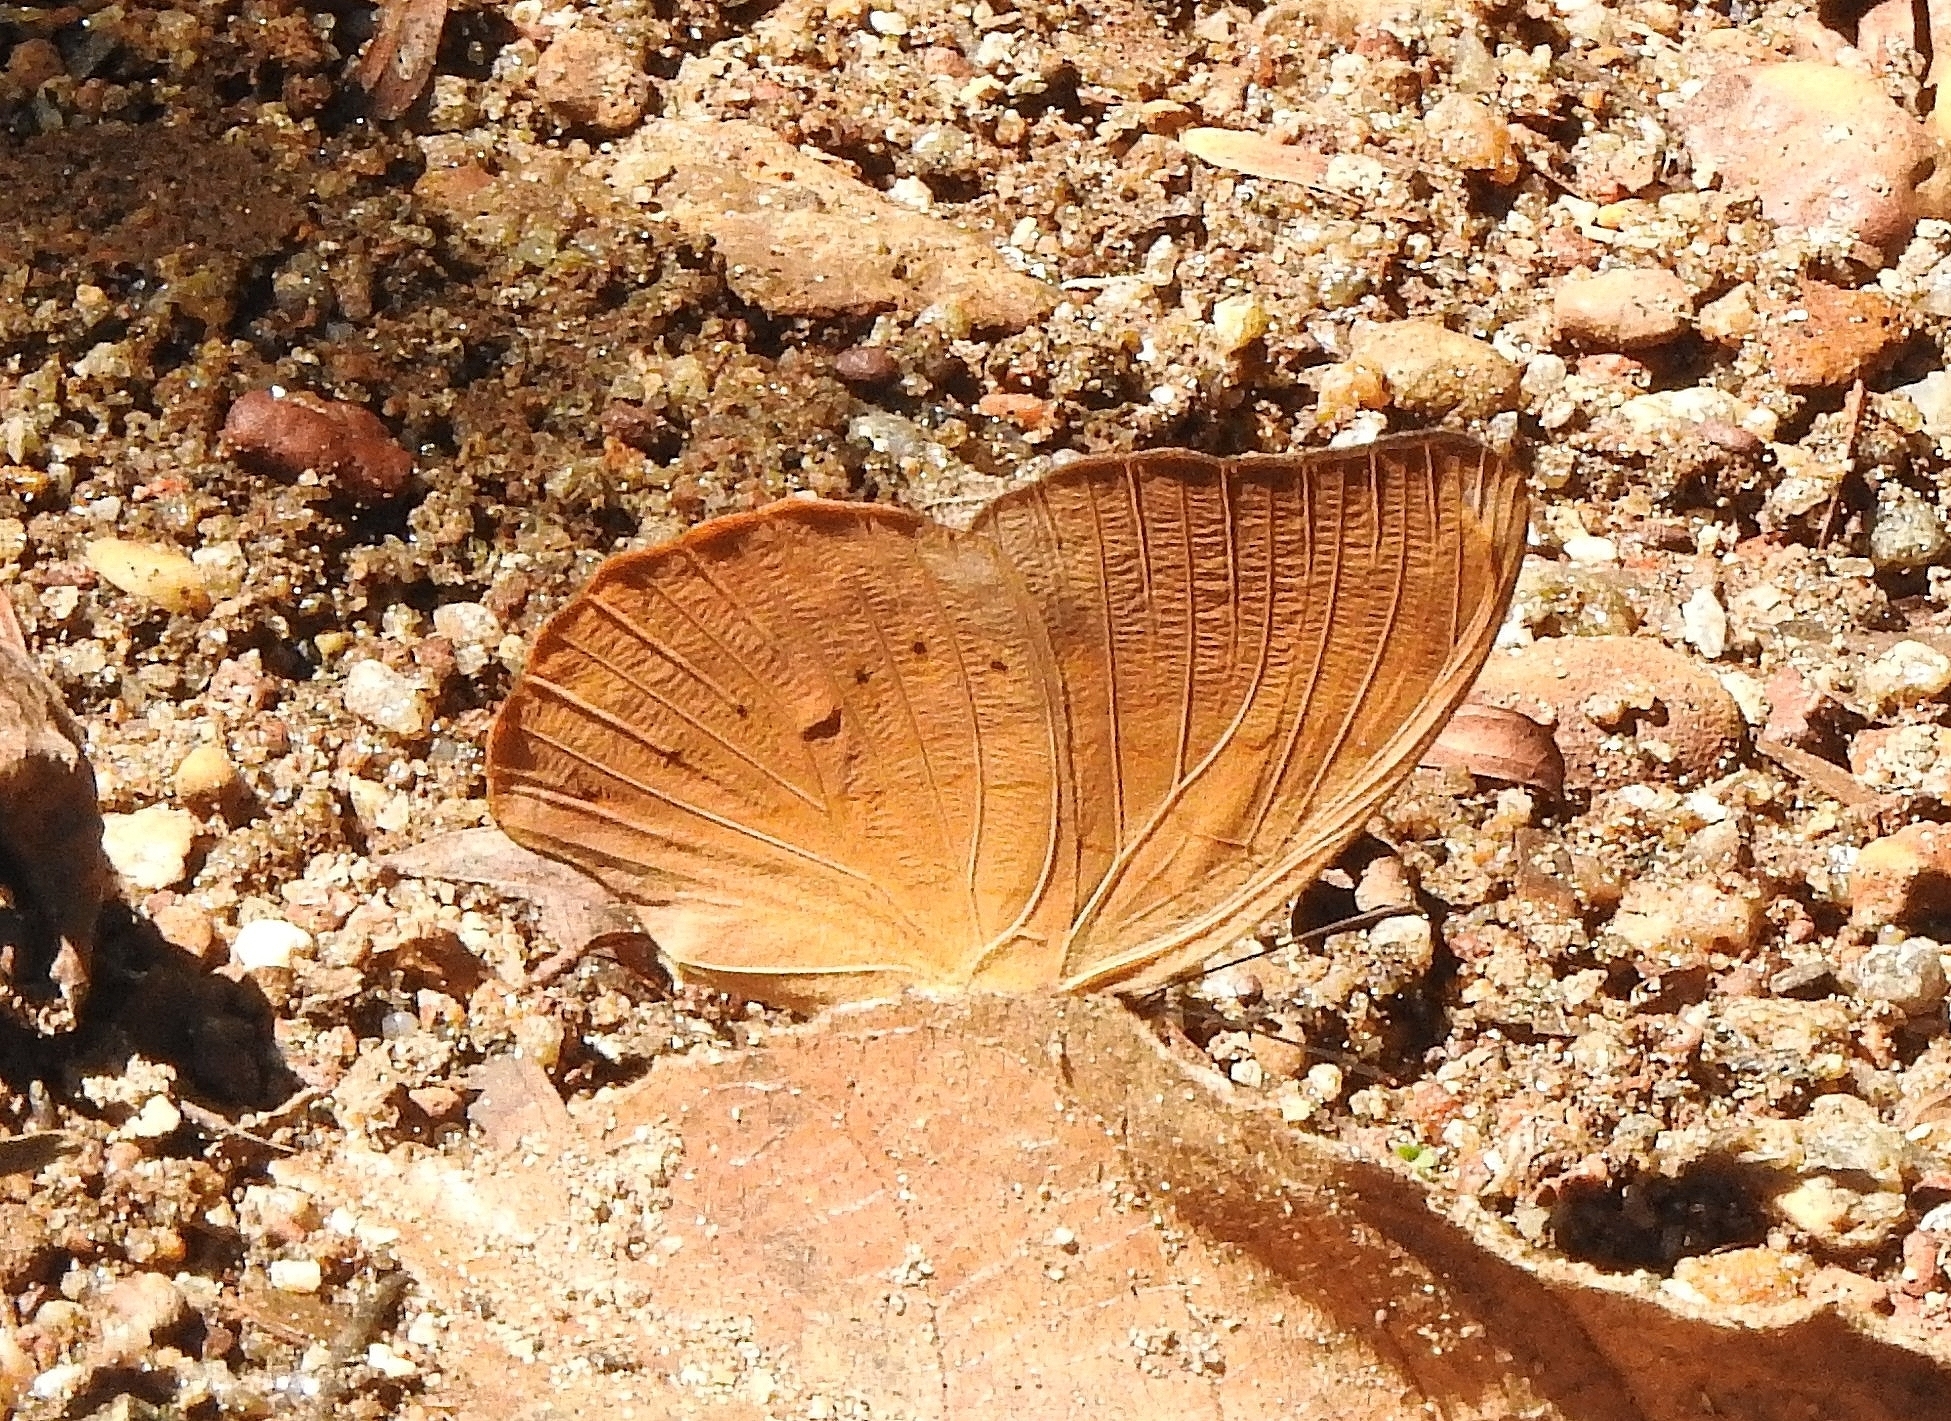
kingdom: Animalia
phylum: Arthropoda
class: Insecta
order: Lepidoptera
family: Nymphalidae
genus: Cirrochroa
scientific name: Cirrochroa thais
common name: Tamil yeoman
